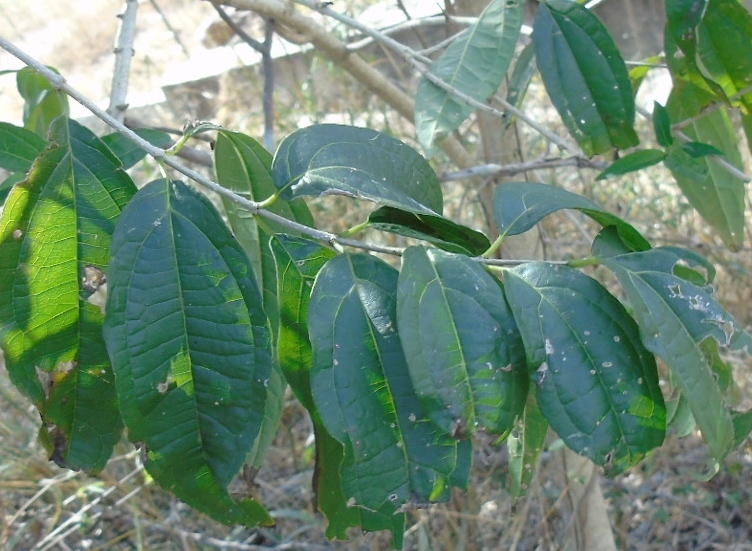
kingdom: Plantae
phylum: Tracheophyta
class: Magnoliopsida
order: Asterales
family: Asteraceae
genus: Koanophyllon
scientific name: Koanophyllon albicaule
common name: Old women's walking stick
